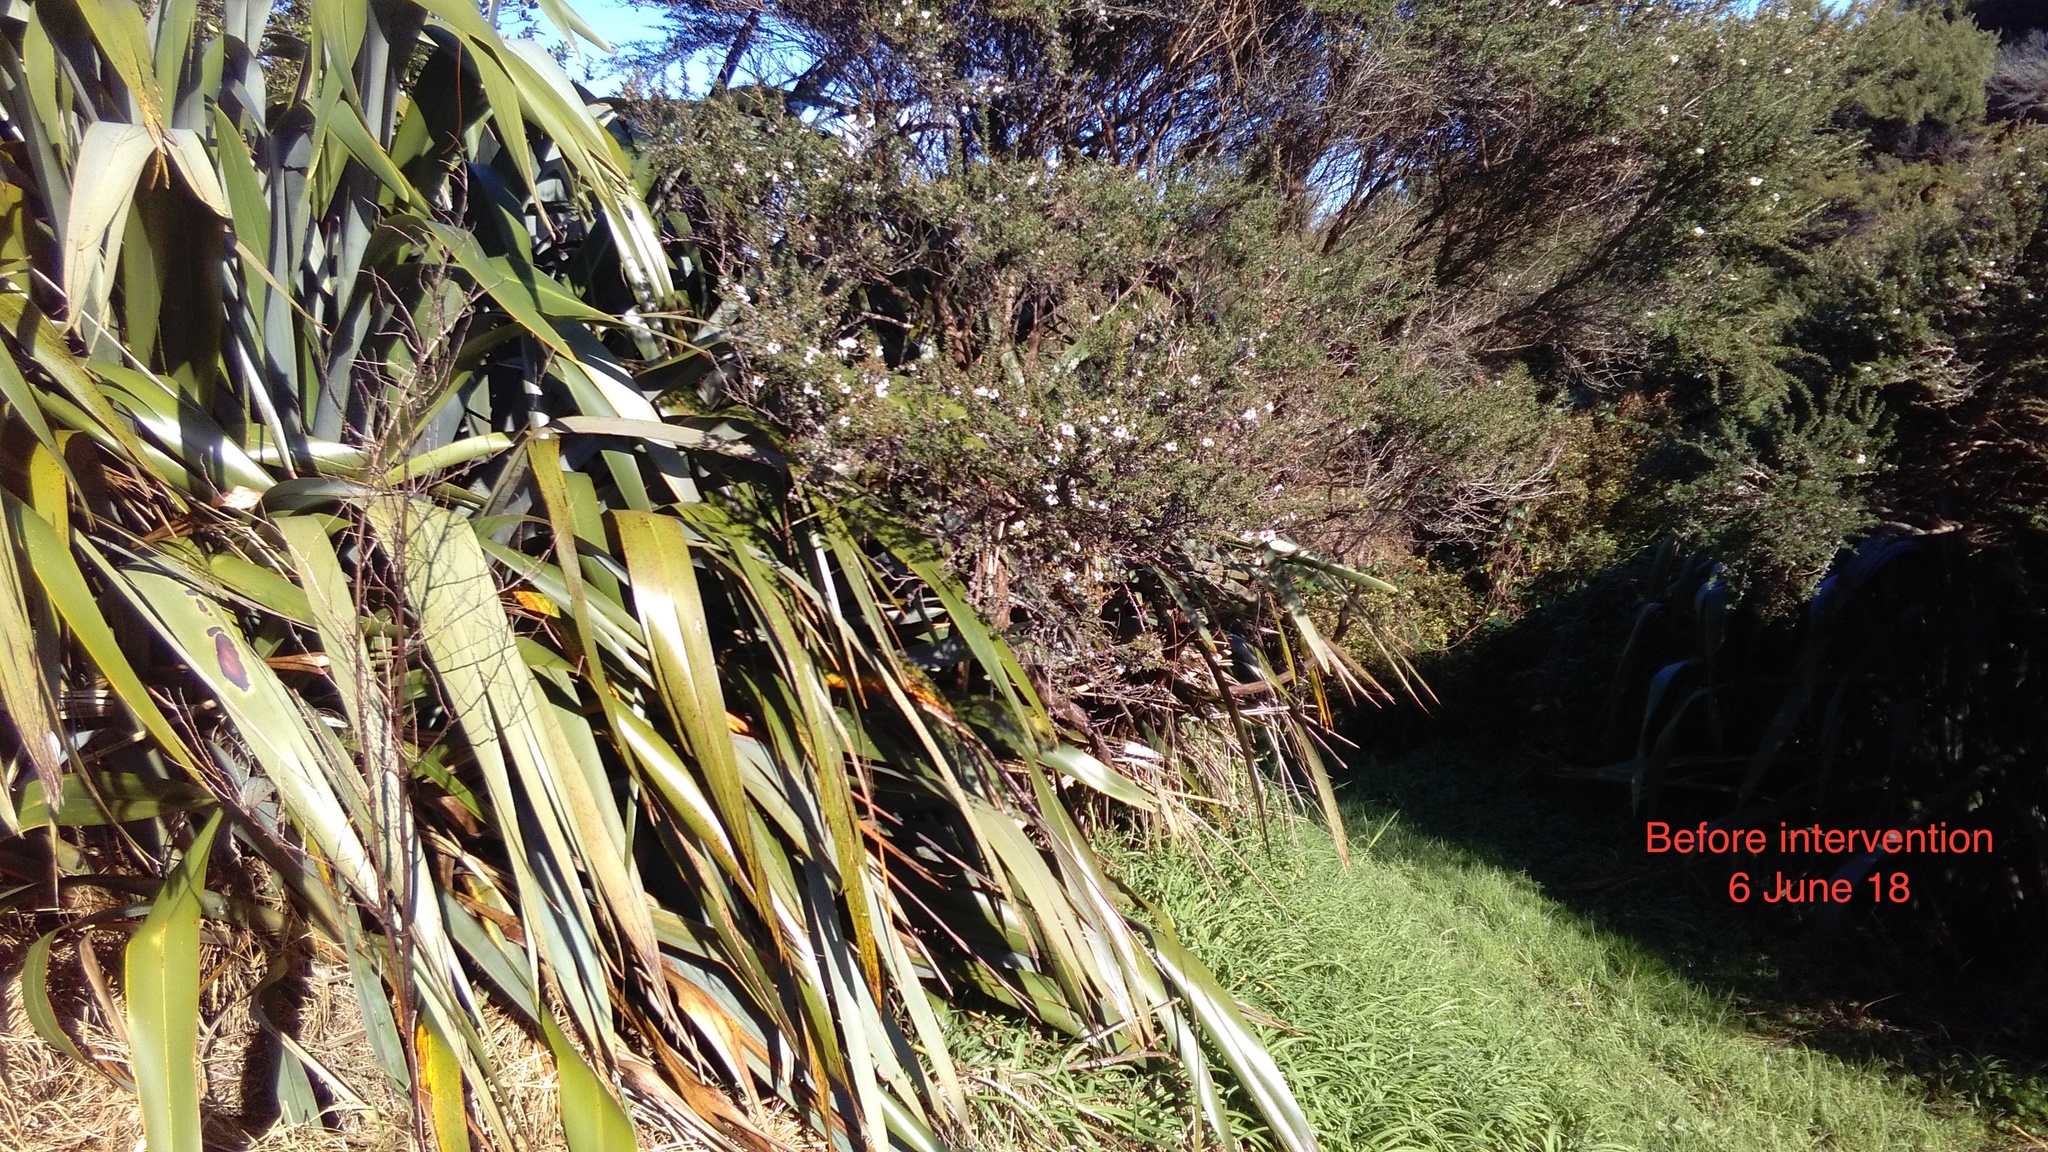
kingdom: Plantae
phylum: Tracheophyta
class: Magnoliopsida
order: Myrtales
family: Myrtaceae
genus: Leptospermum
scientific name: Leptospermum scoparium
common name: Broom tea-tree
